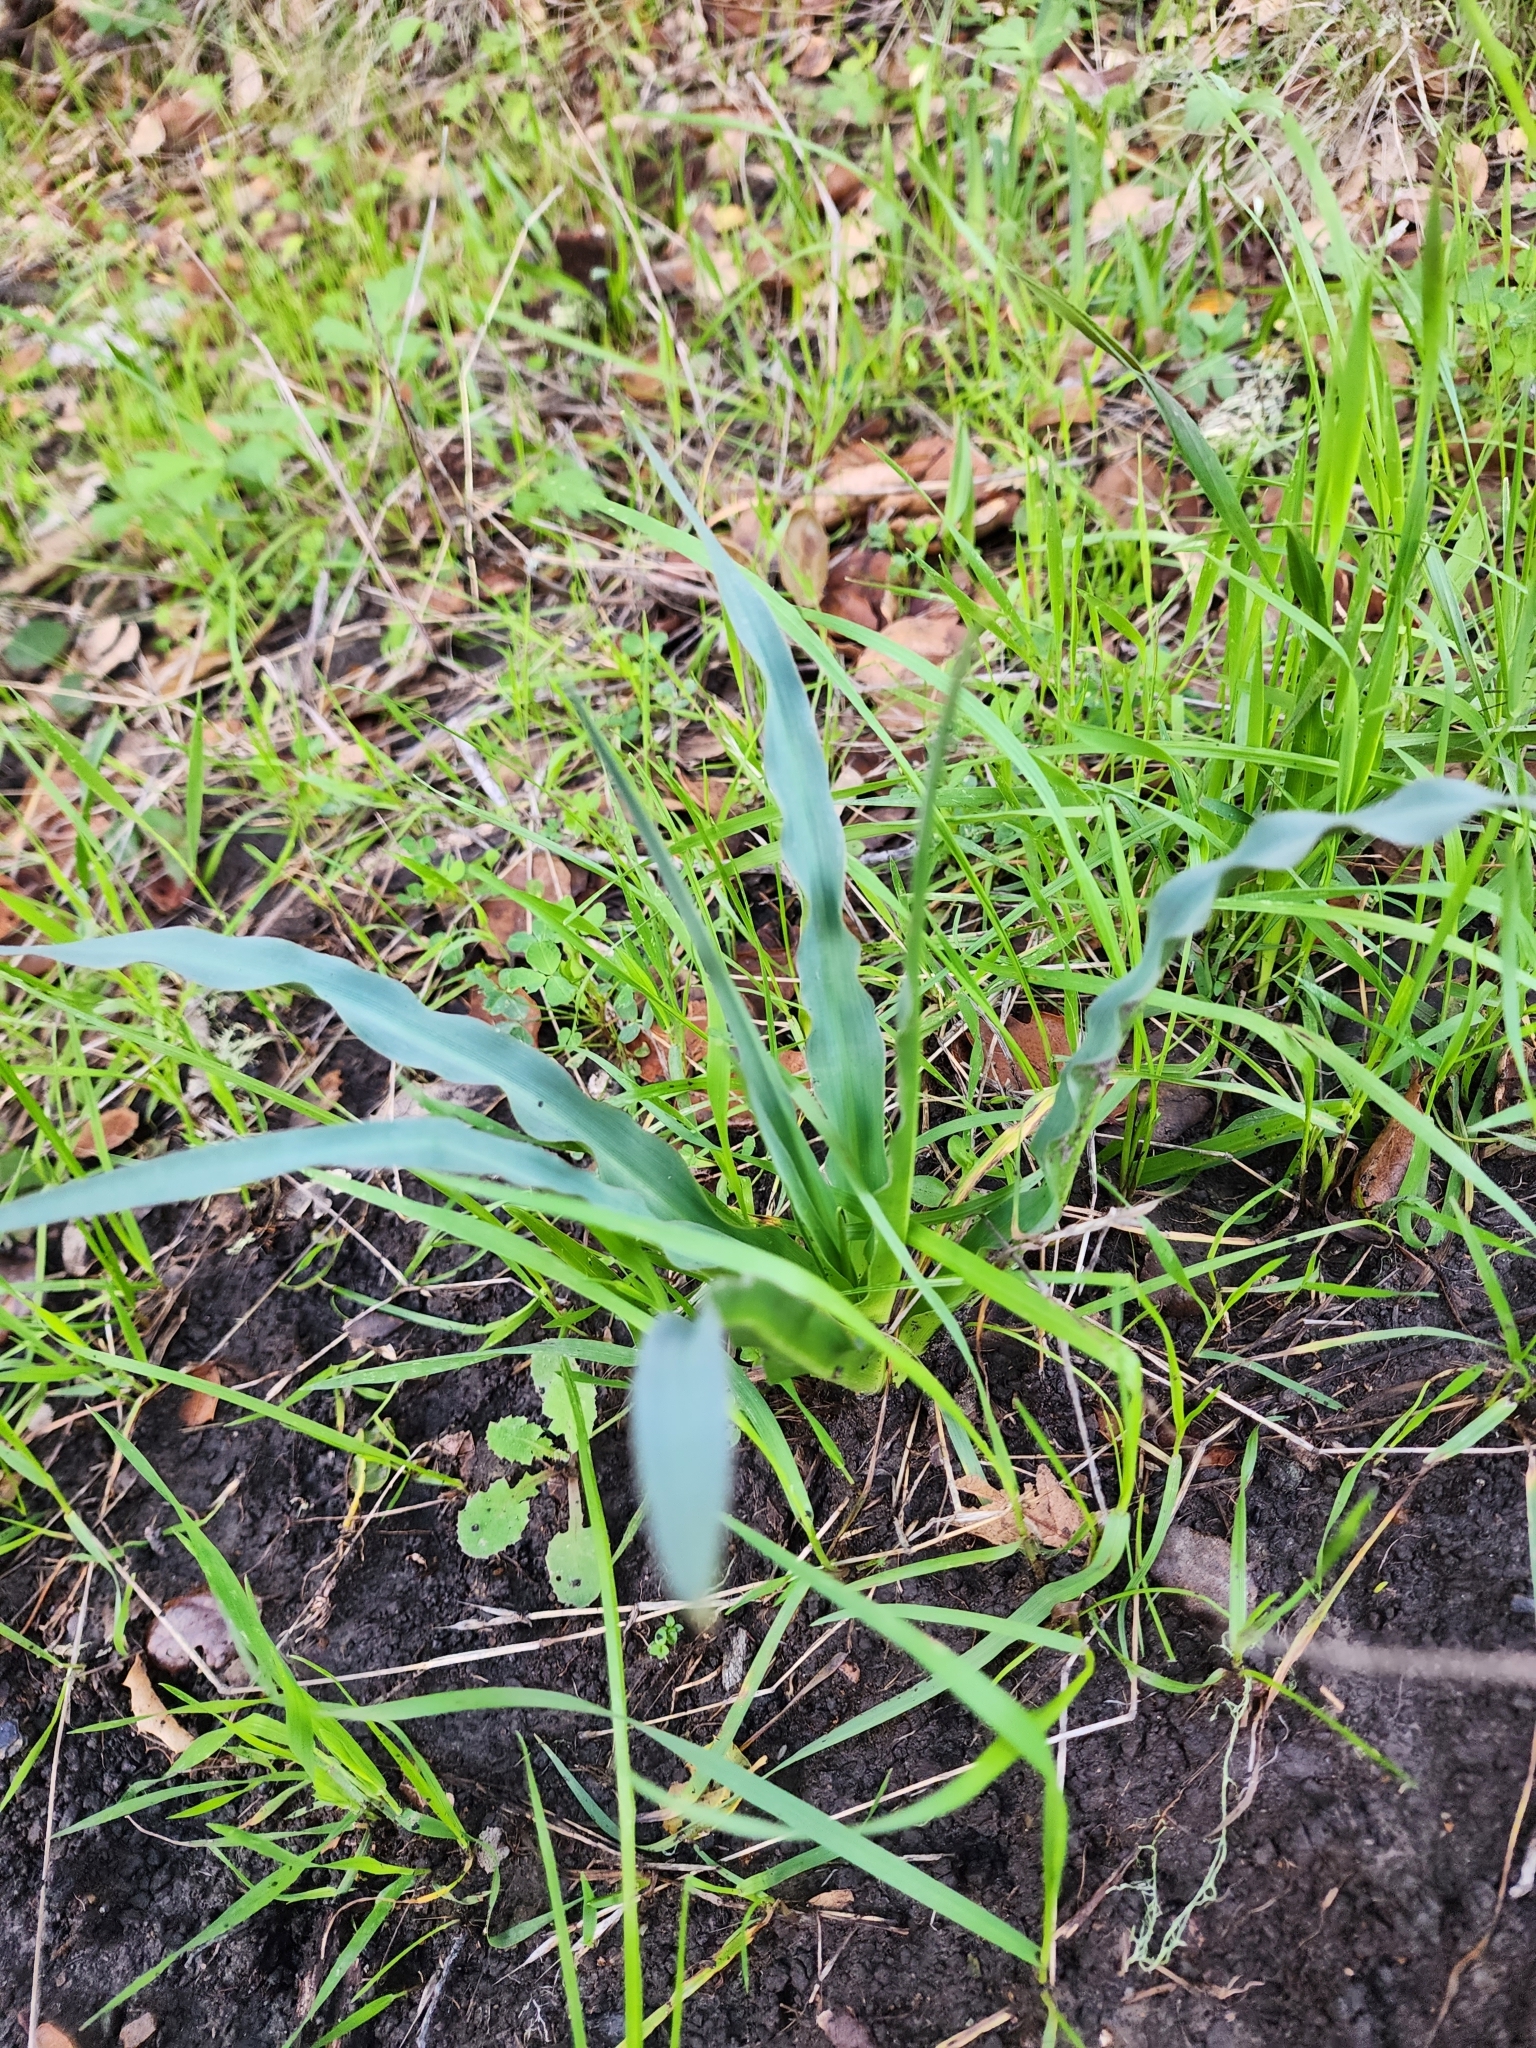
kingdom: Plantae
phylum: Tracheophyta
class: Liliopsida
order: Asparagales
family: Asparagaceae
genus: Chlorogalum
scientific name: Chlorogalum pomeridianum
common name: Amole
